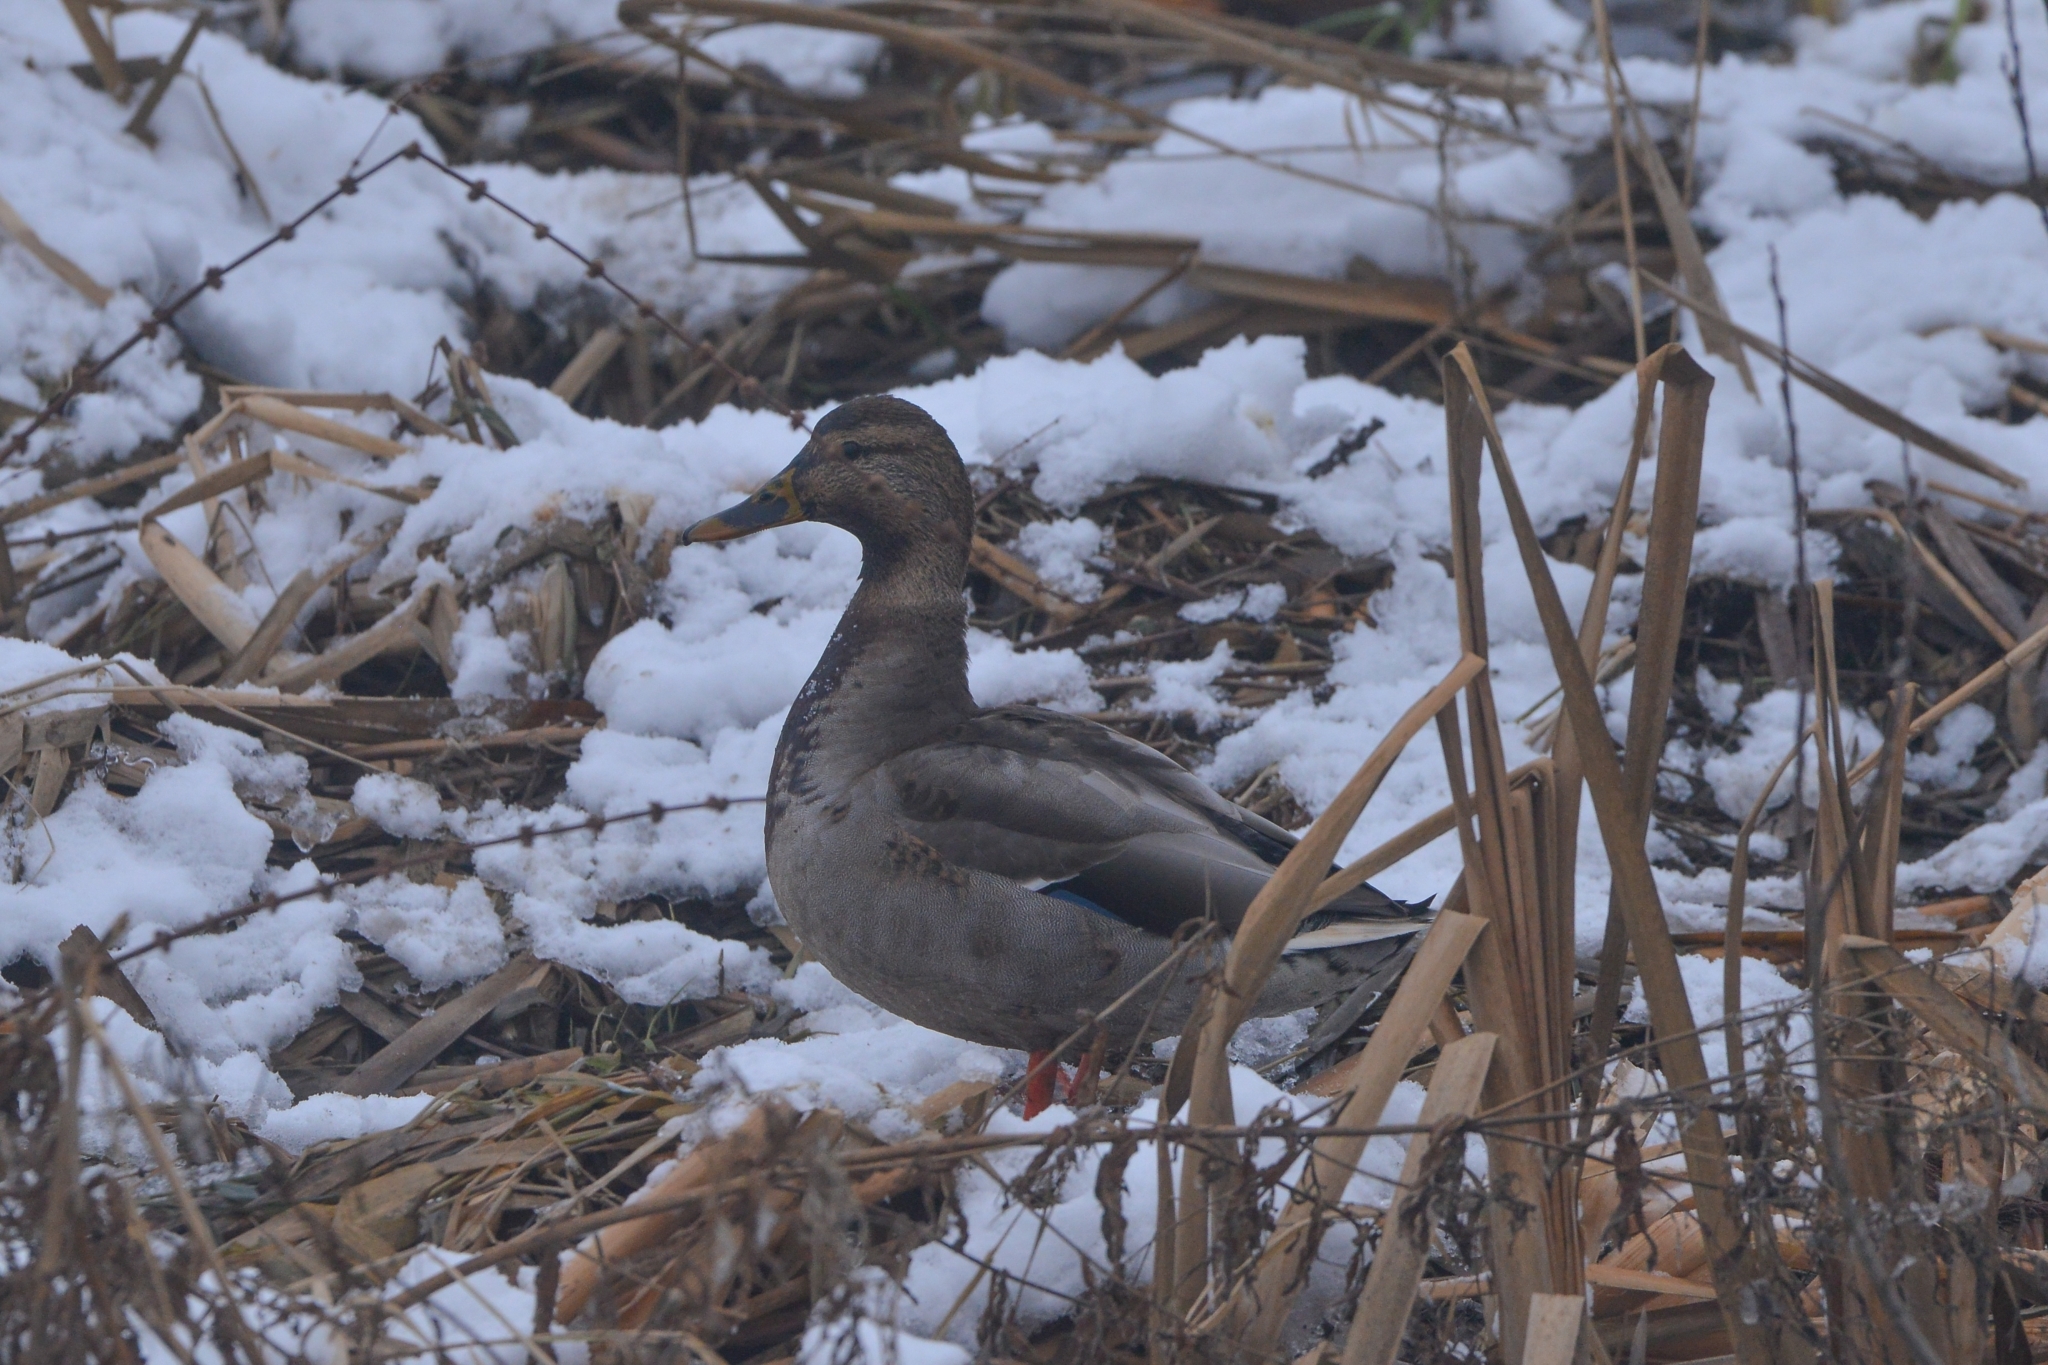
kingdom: Animalia
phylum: Chordata
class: Aves
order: Anseriformes
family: Anatidae
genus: Anas
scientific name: Anas platyrhynchos
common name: Mallard
